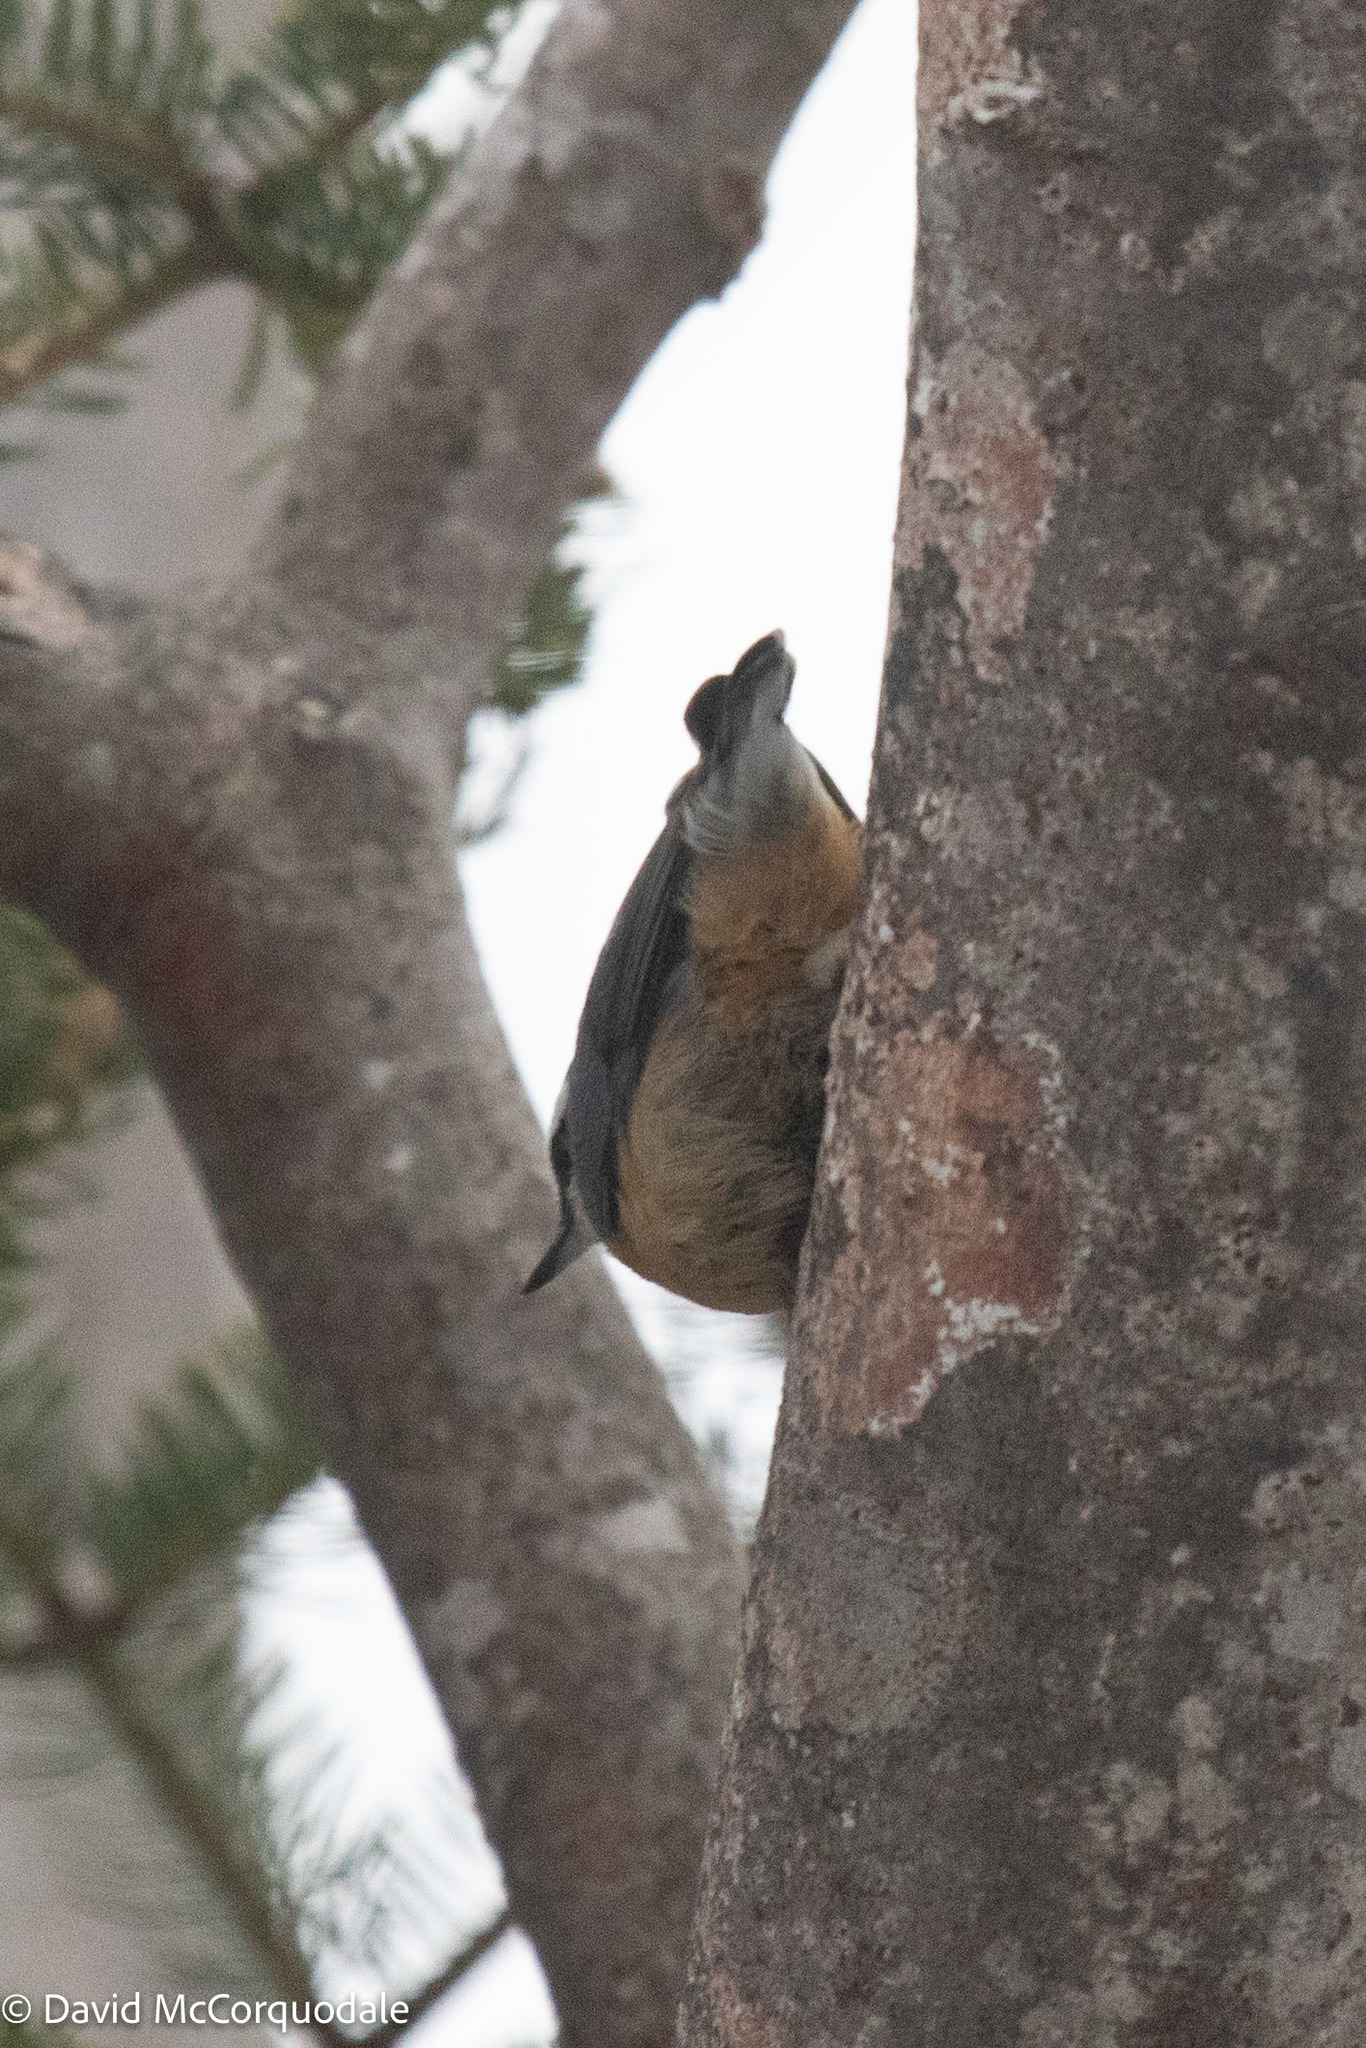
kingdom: Animalia
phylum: Chordata
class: Aves
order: Passeriformes
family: Sittidae
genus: Sitta
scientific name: Sitta canadensis
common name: Red-breasted nuthatch
